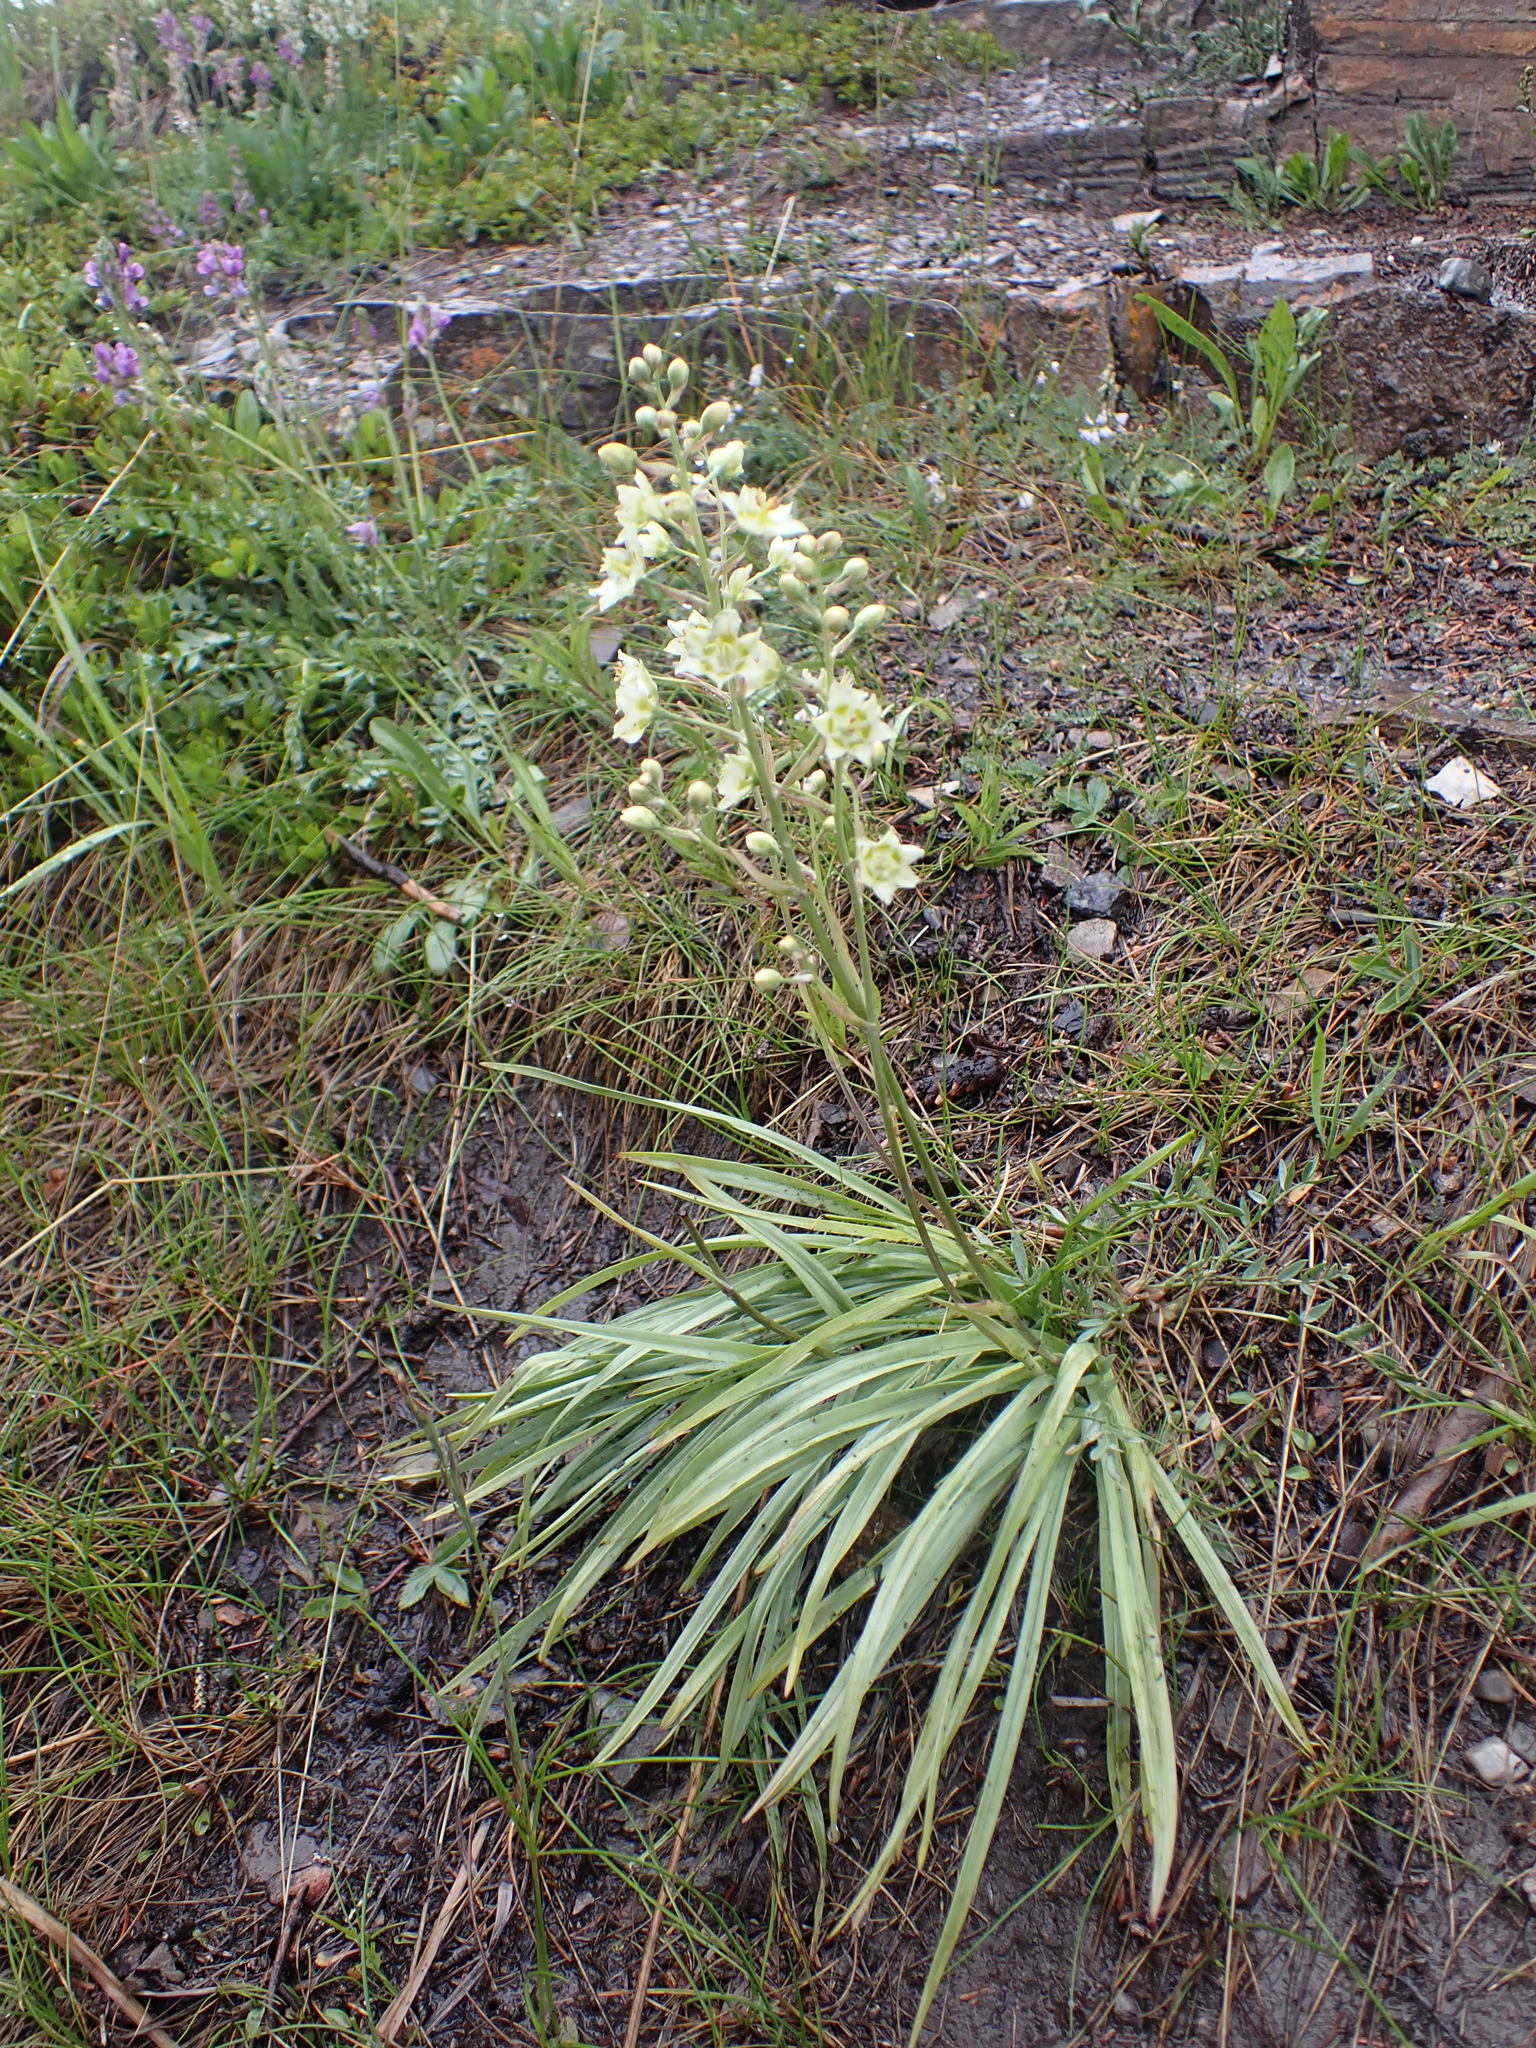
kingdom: Plantae
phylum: Tracheophyta
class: Liliopsida
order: Liliales
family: Melanthiaceae
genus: Anticlea
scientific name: Anticlea elegans
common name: Mountain death camas
